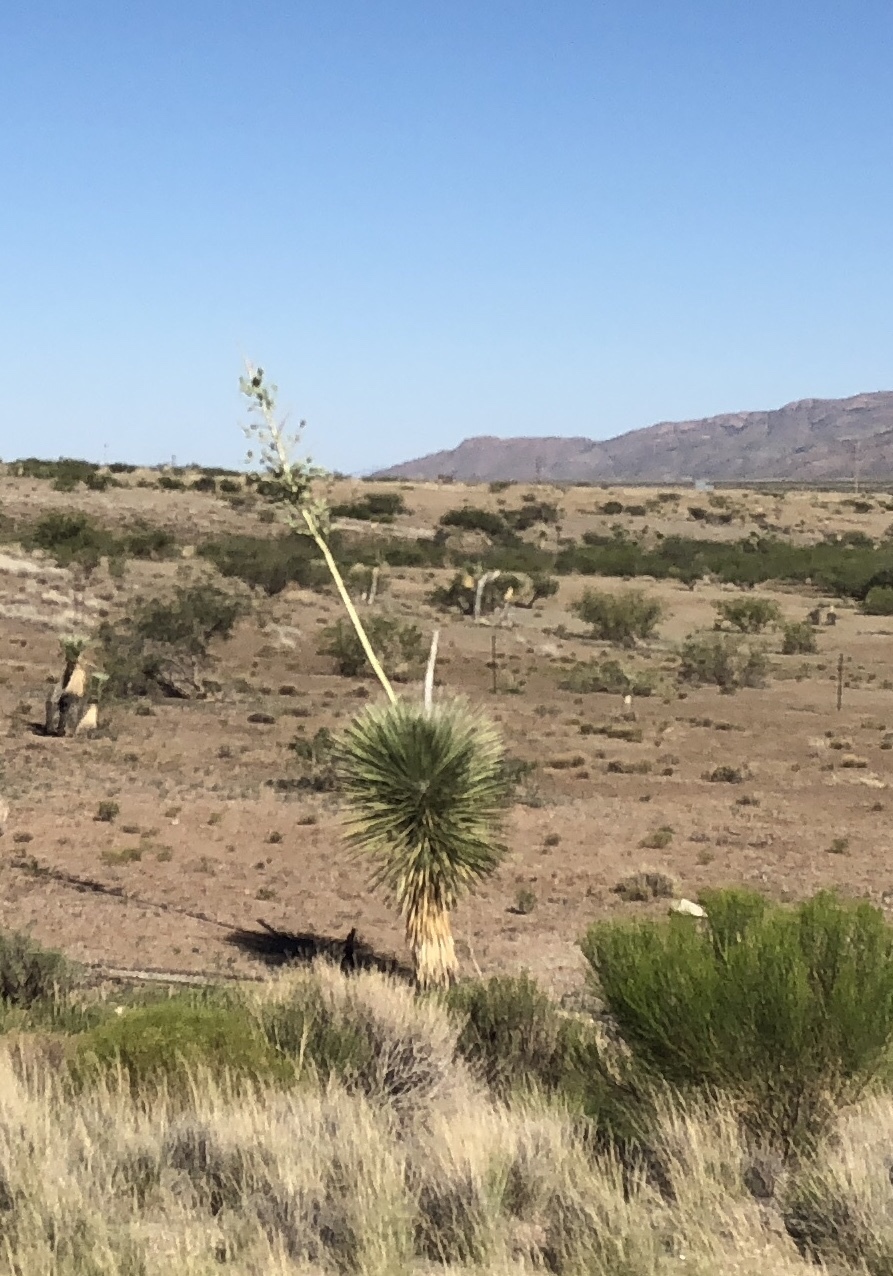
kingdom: Plantae
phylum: Tracheophyta
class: Liliopsida
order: Asparagales
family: Asparagaceae
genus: Yucca
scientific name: Yucca elata
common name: Palmella
